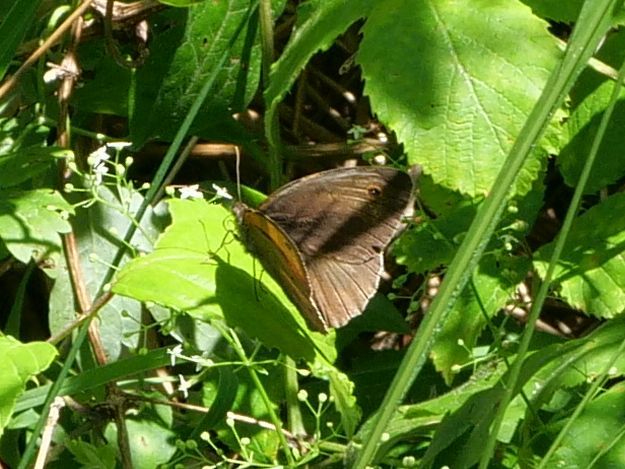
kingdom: Animalia
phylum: Arthropoda
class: Insecta
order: Lepidoptera
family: Nymphalidae
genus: Maniola
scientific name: Maniola jurtina
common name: Meadow brown
